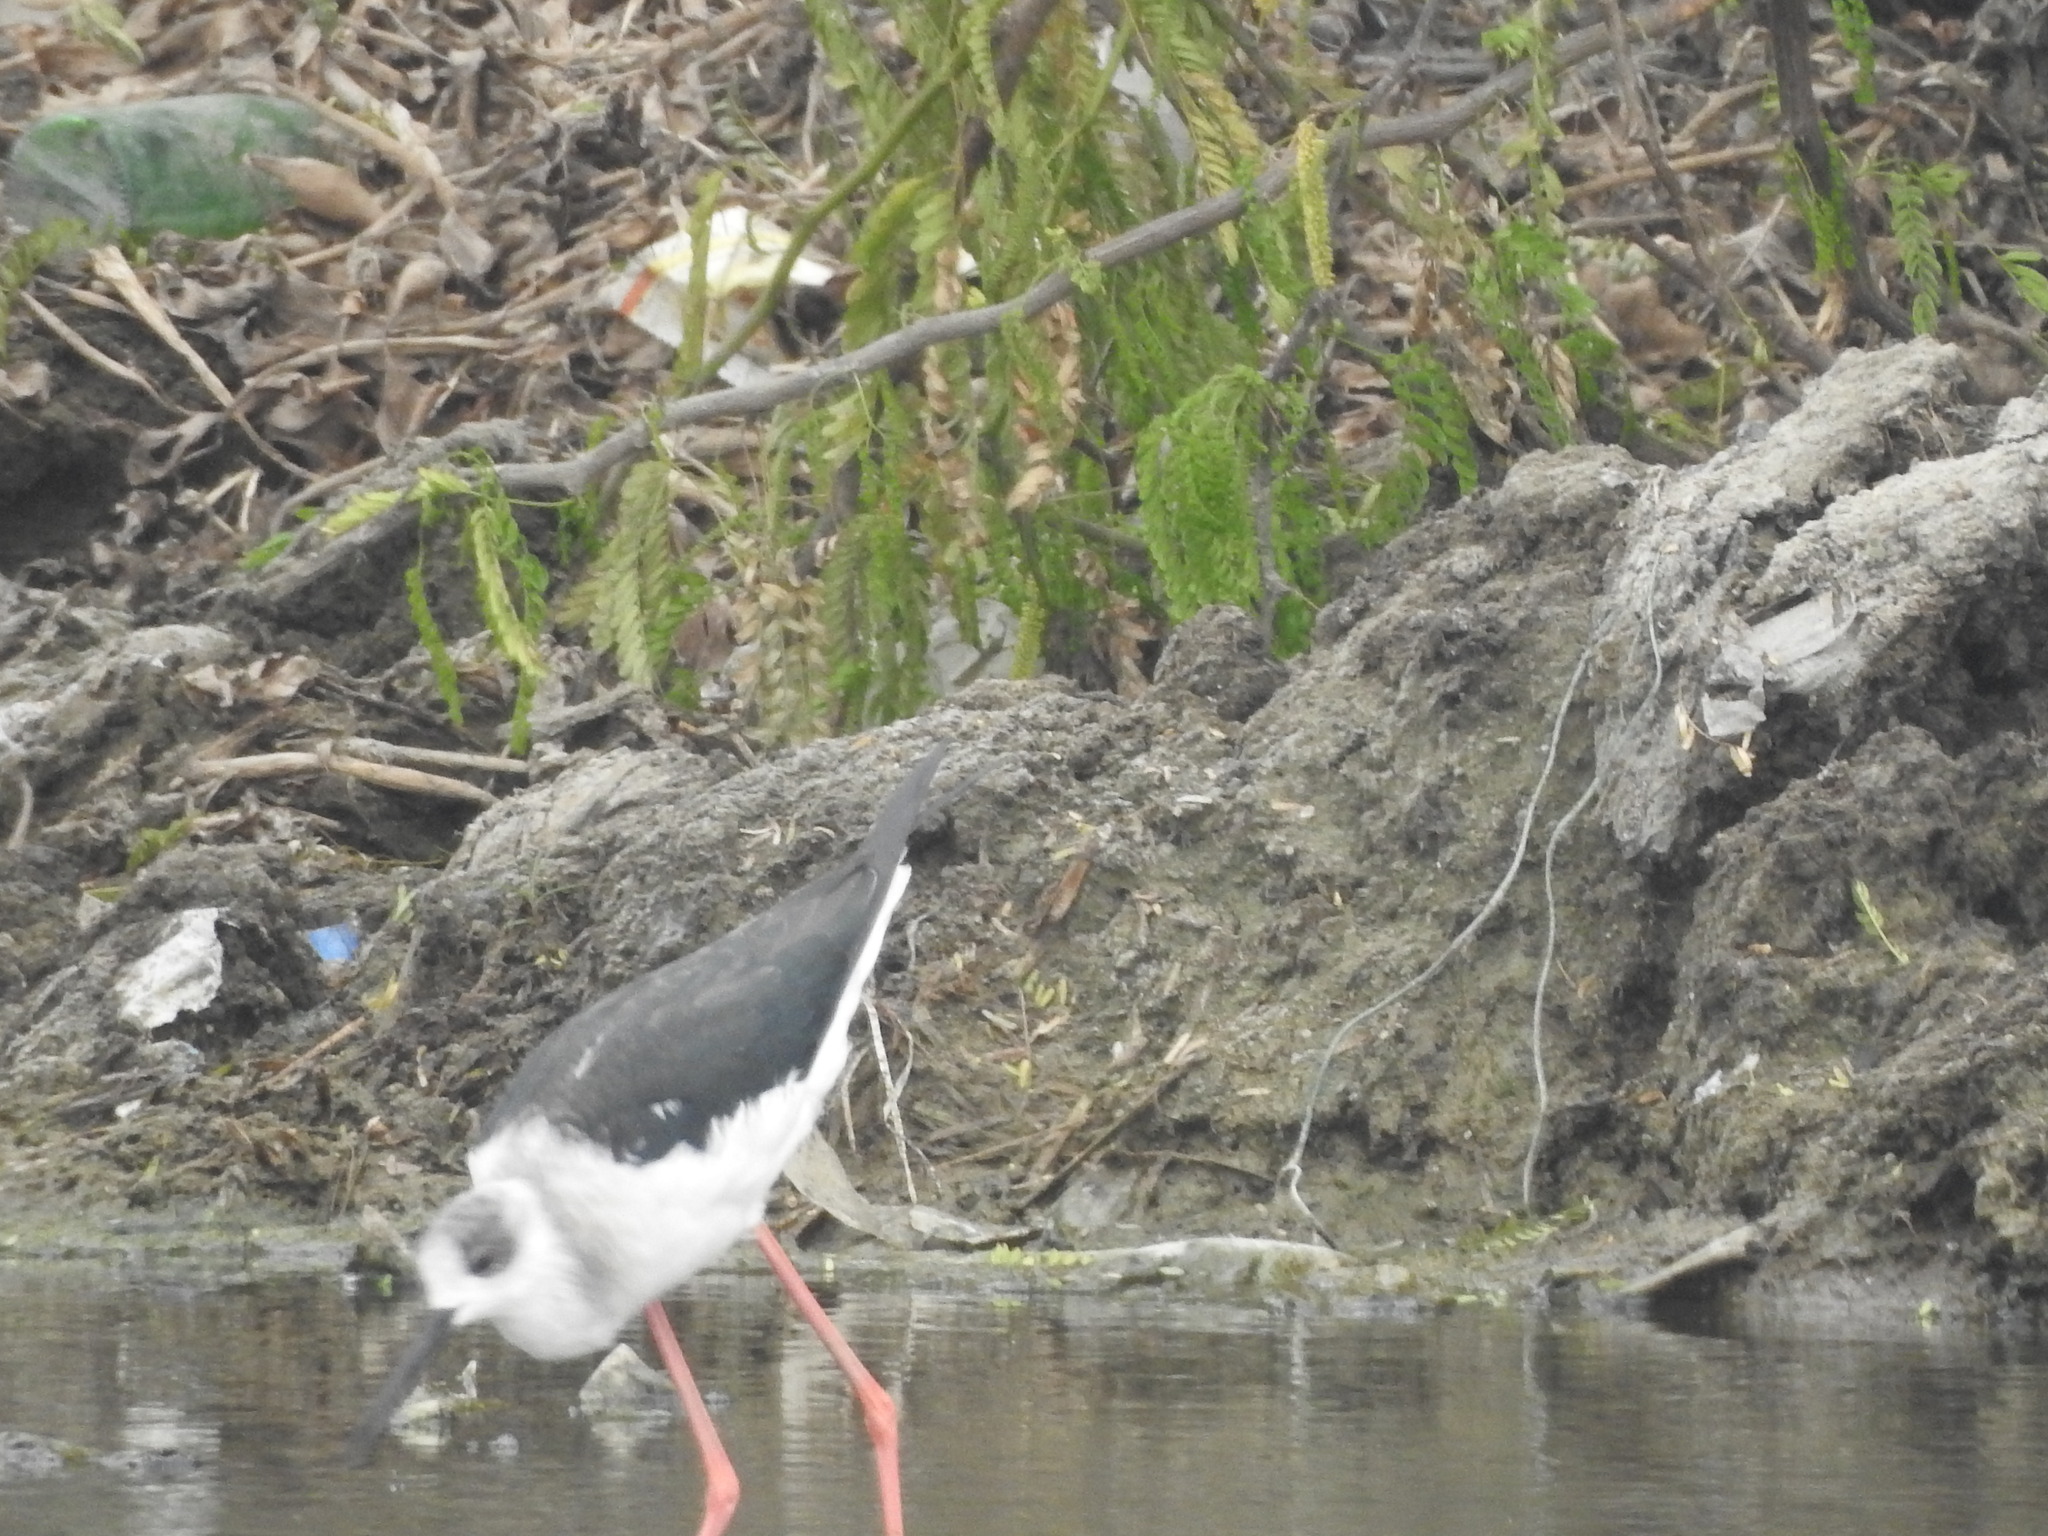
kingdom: Animalia
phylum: Chordata
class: Aves
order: Charadriiformes
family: Recurvirostridae
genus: Himantopus
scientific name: Himantopus himantopus
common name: Black-winged stilt
